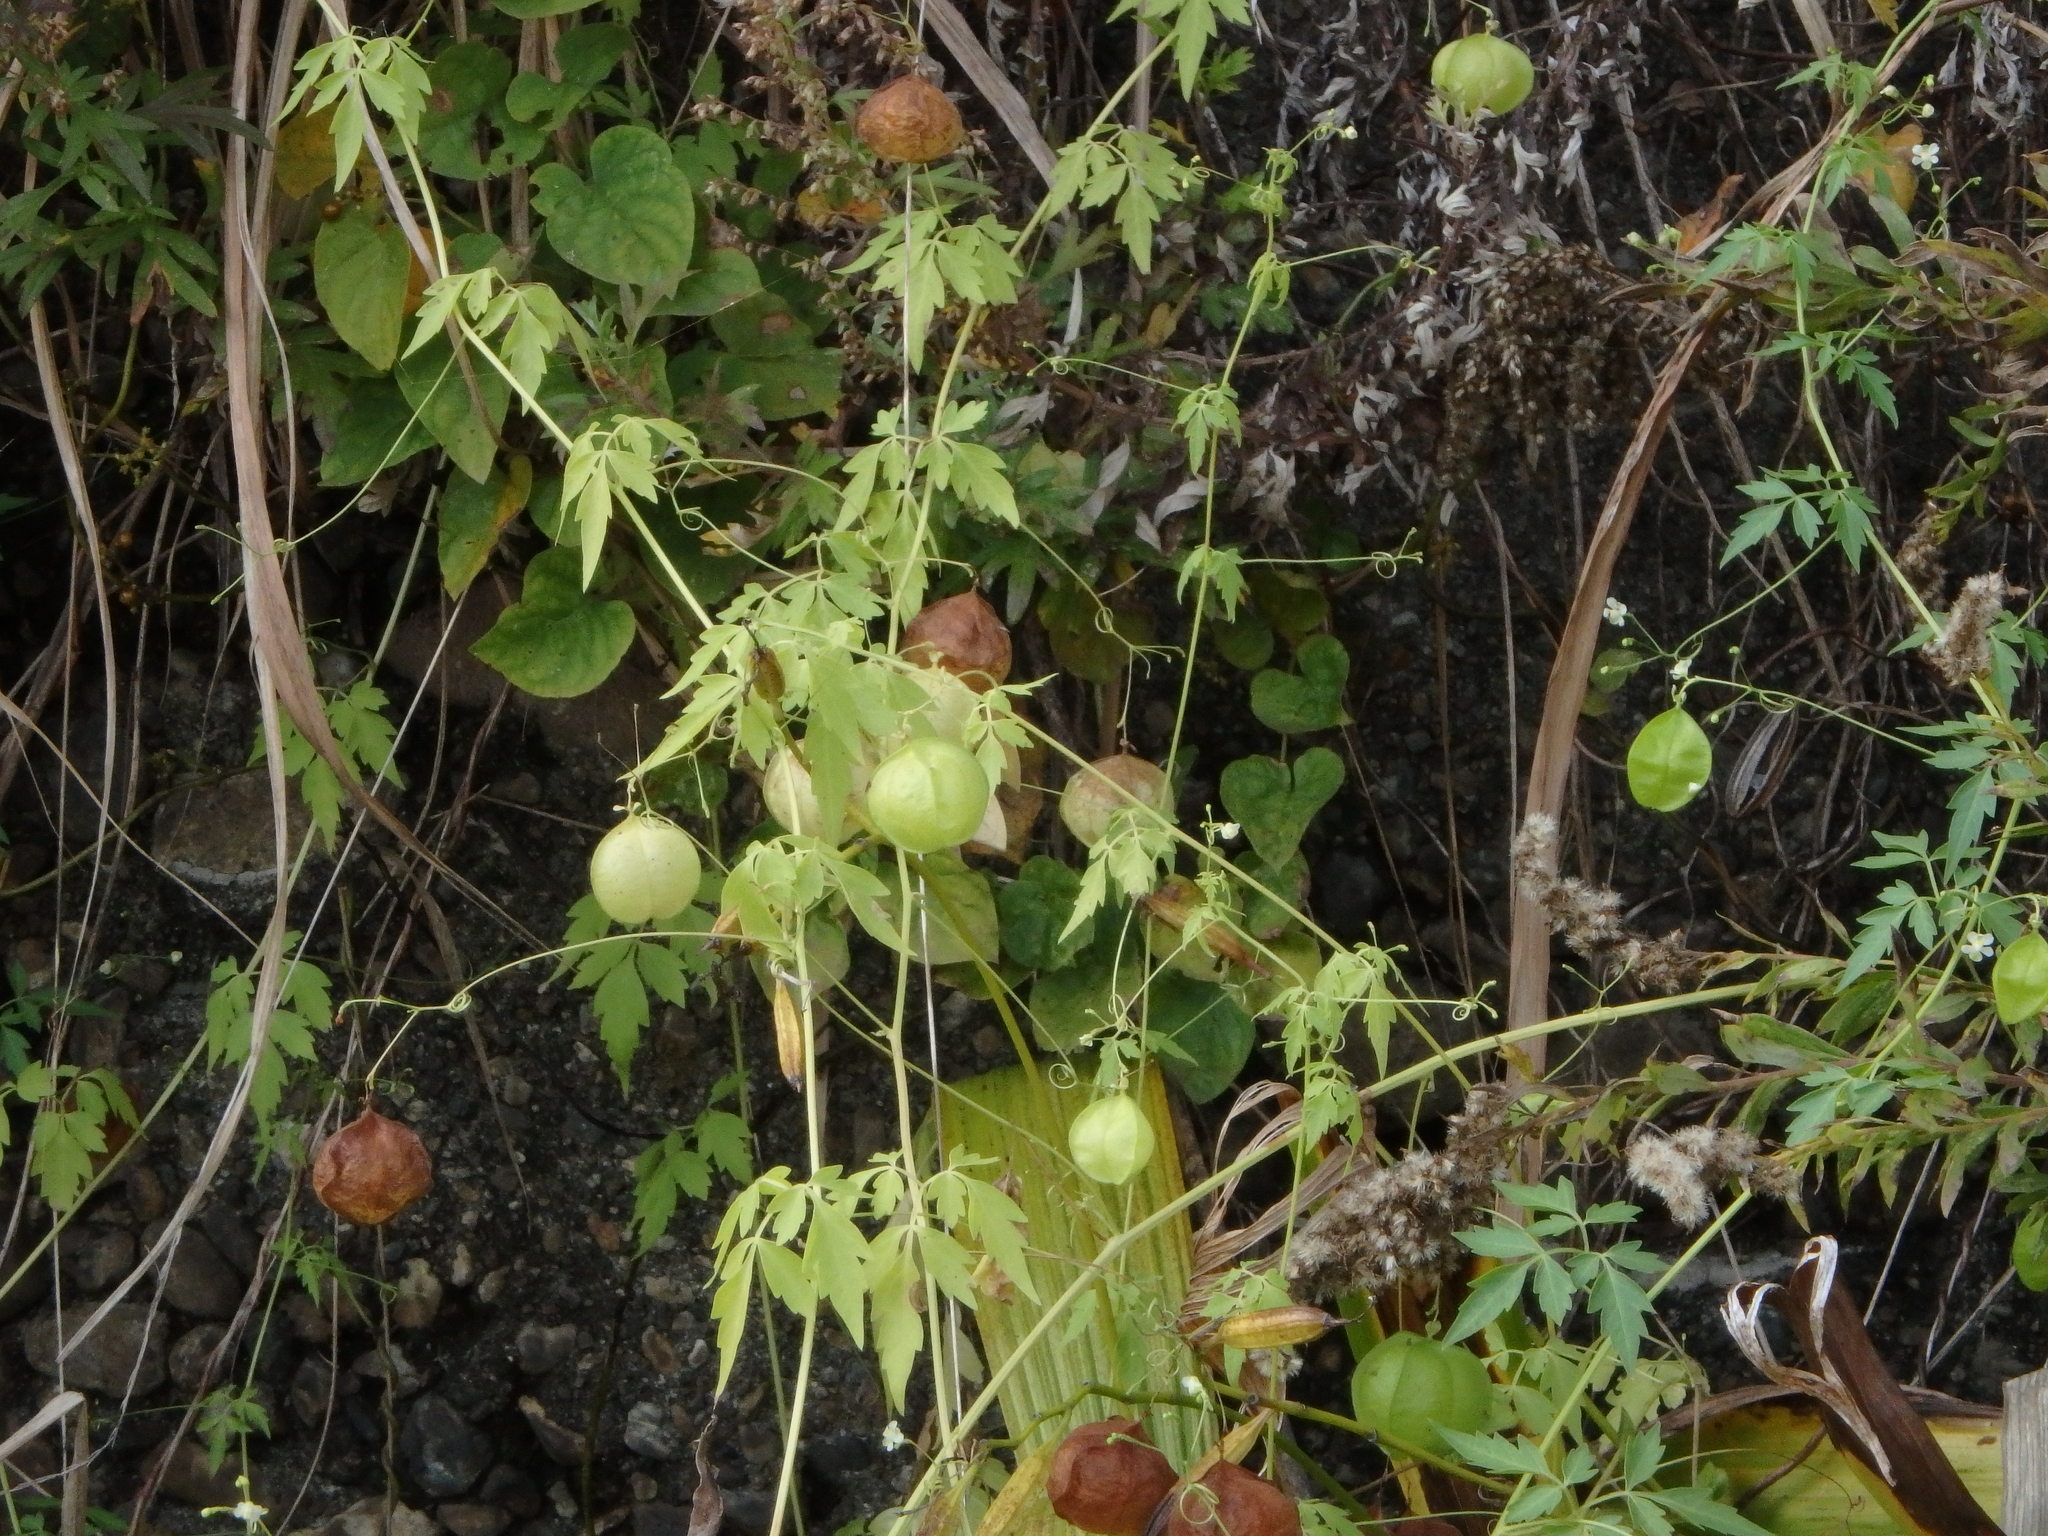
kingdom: Plantae
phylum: Tracheophyta
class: Magnoliopsida
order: Sapindales
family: Sapindaceae
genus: Cardiospermum
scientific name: Cardiospermum halicacabum
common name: Balloon vine
